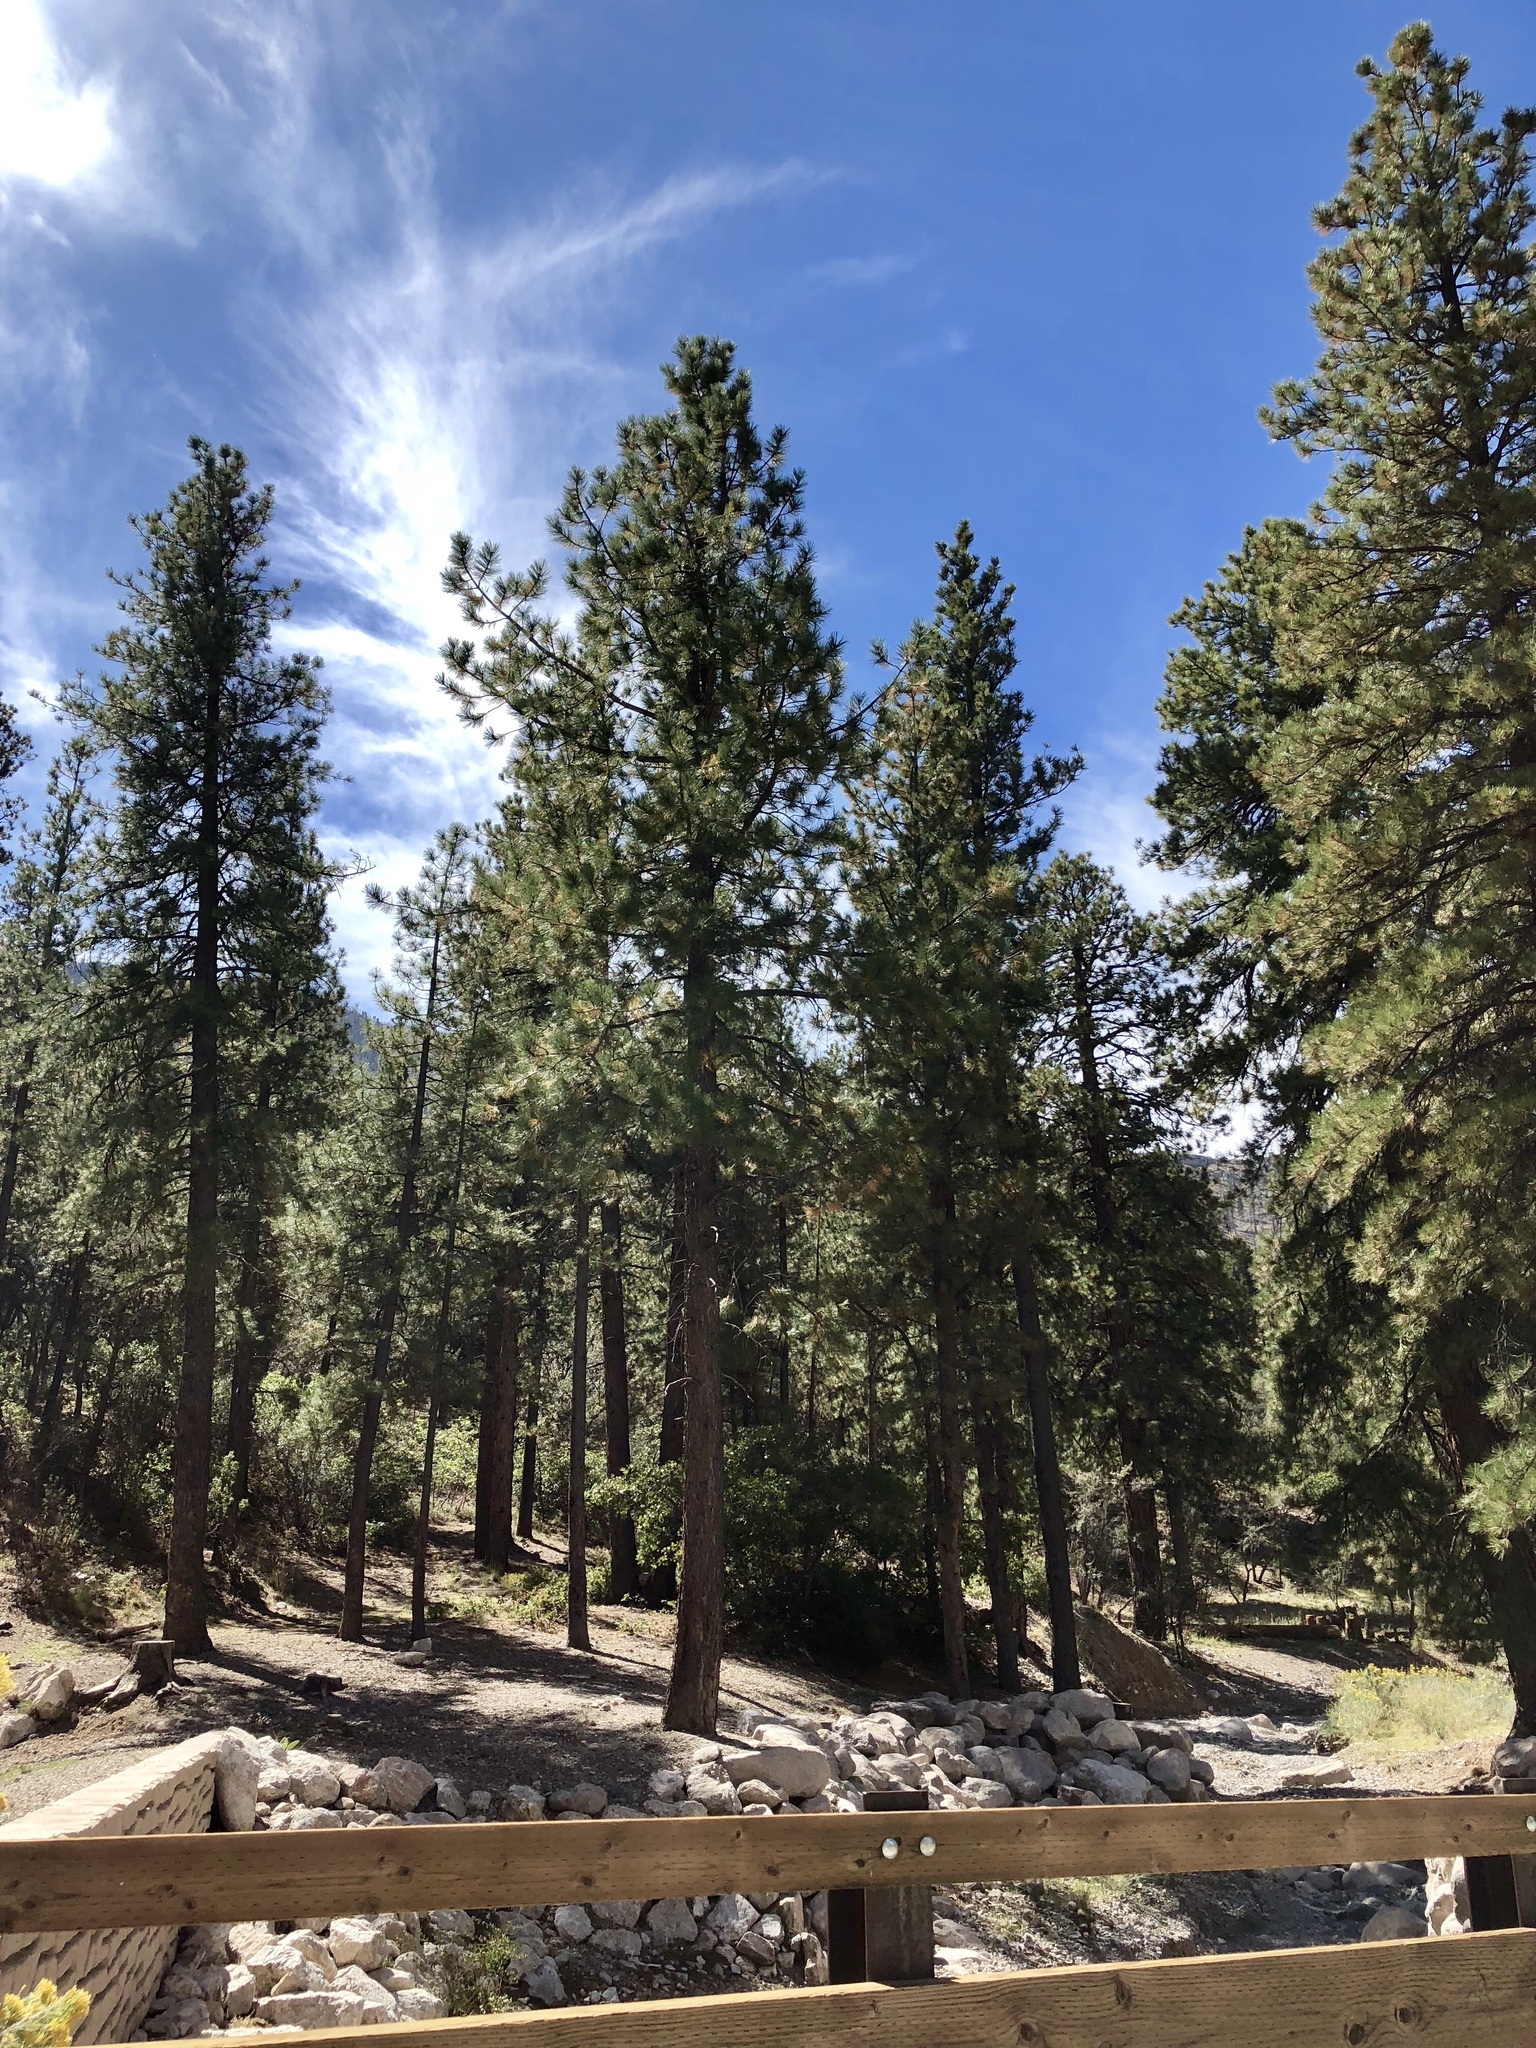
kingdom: Plantae
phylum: Tracheophyta
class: Pinopsida
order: Pinales
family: Pinaceae
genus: Pinus
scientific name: Pinus ponderosa
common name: Western yellow-pine
